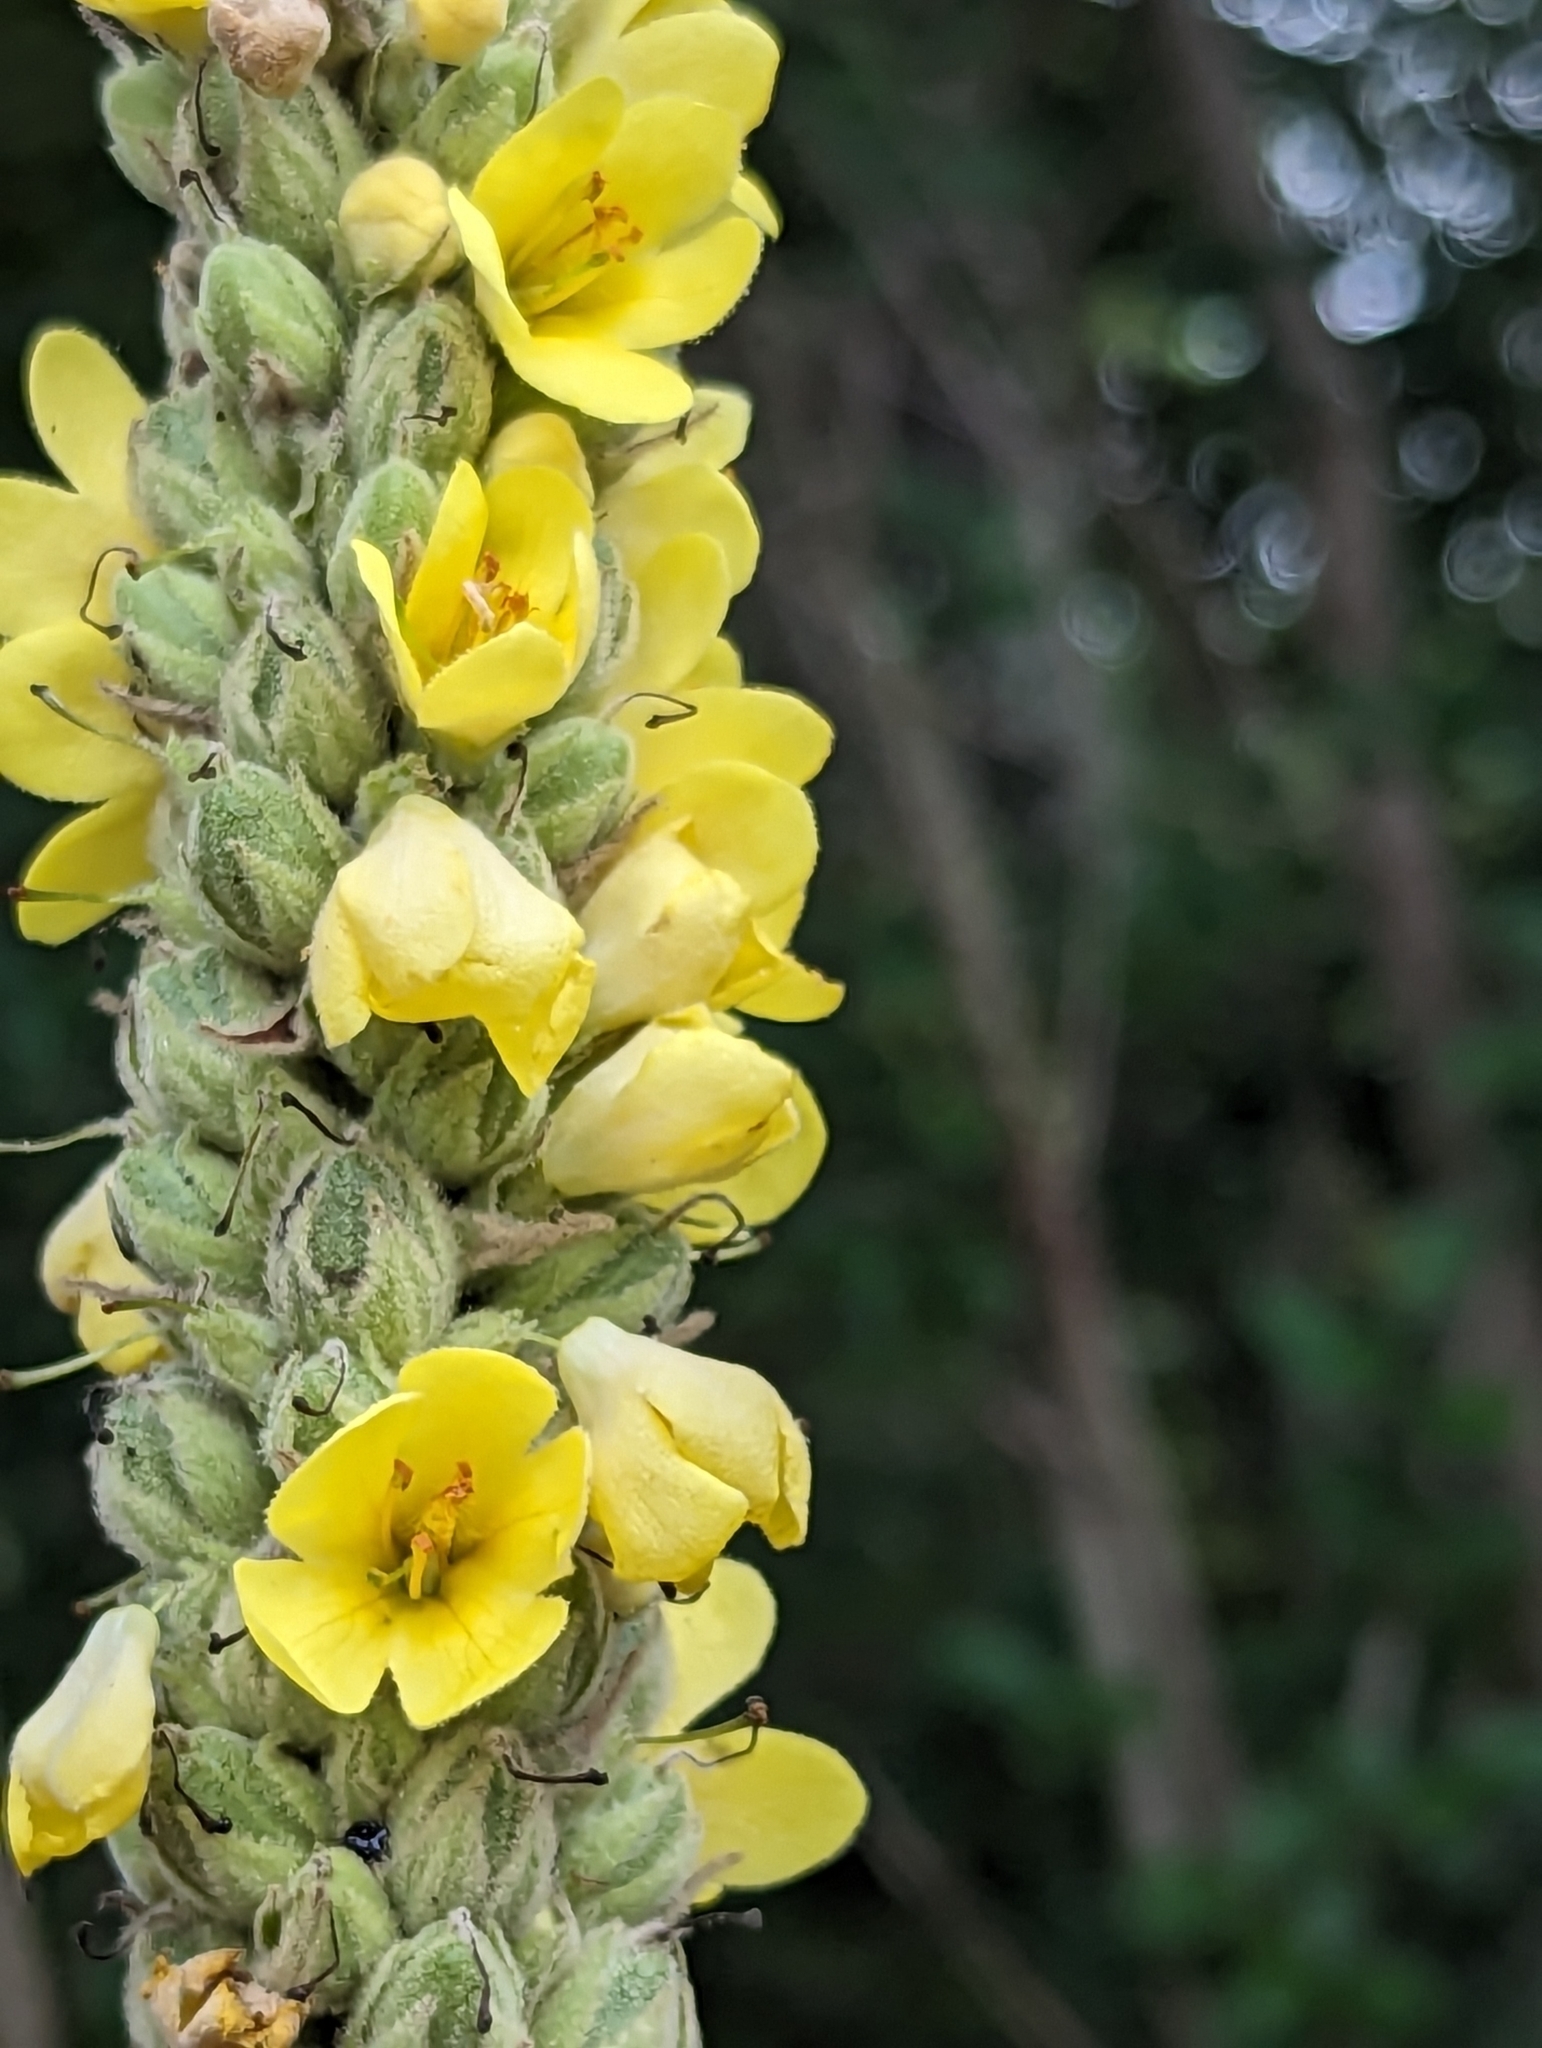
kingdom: Plantae
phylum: Tracheophyta
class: Magnoliopsida
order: Lamiales
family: Scrophulariaceae
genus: Verbascum
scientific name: Verbascum thapsus
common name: Common mullein
